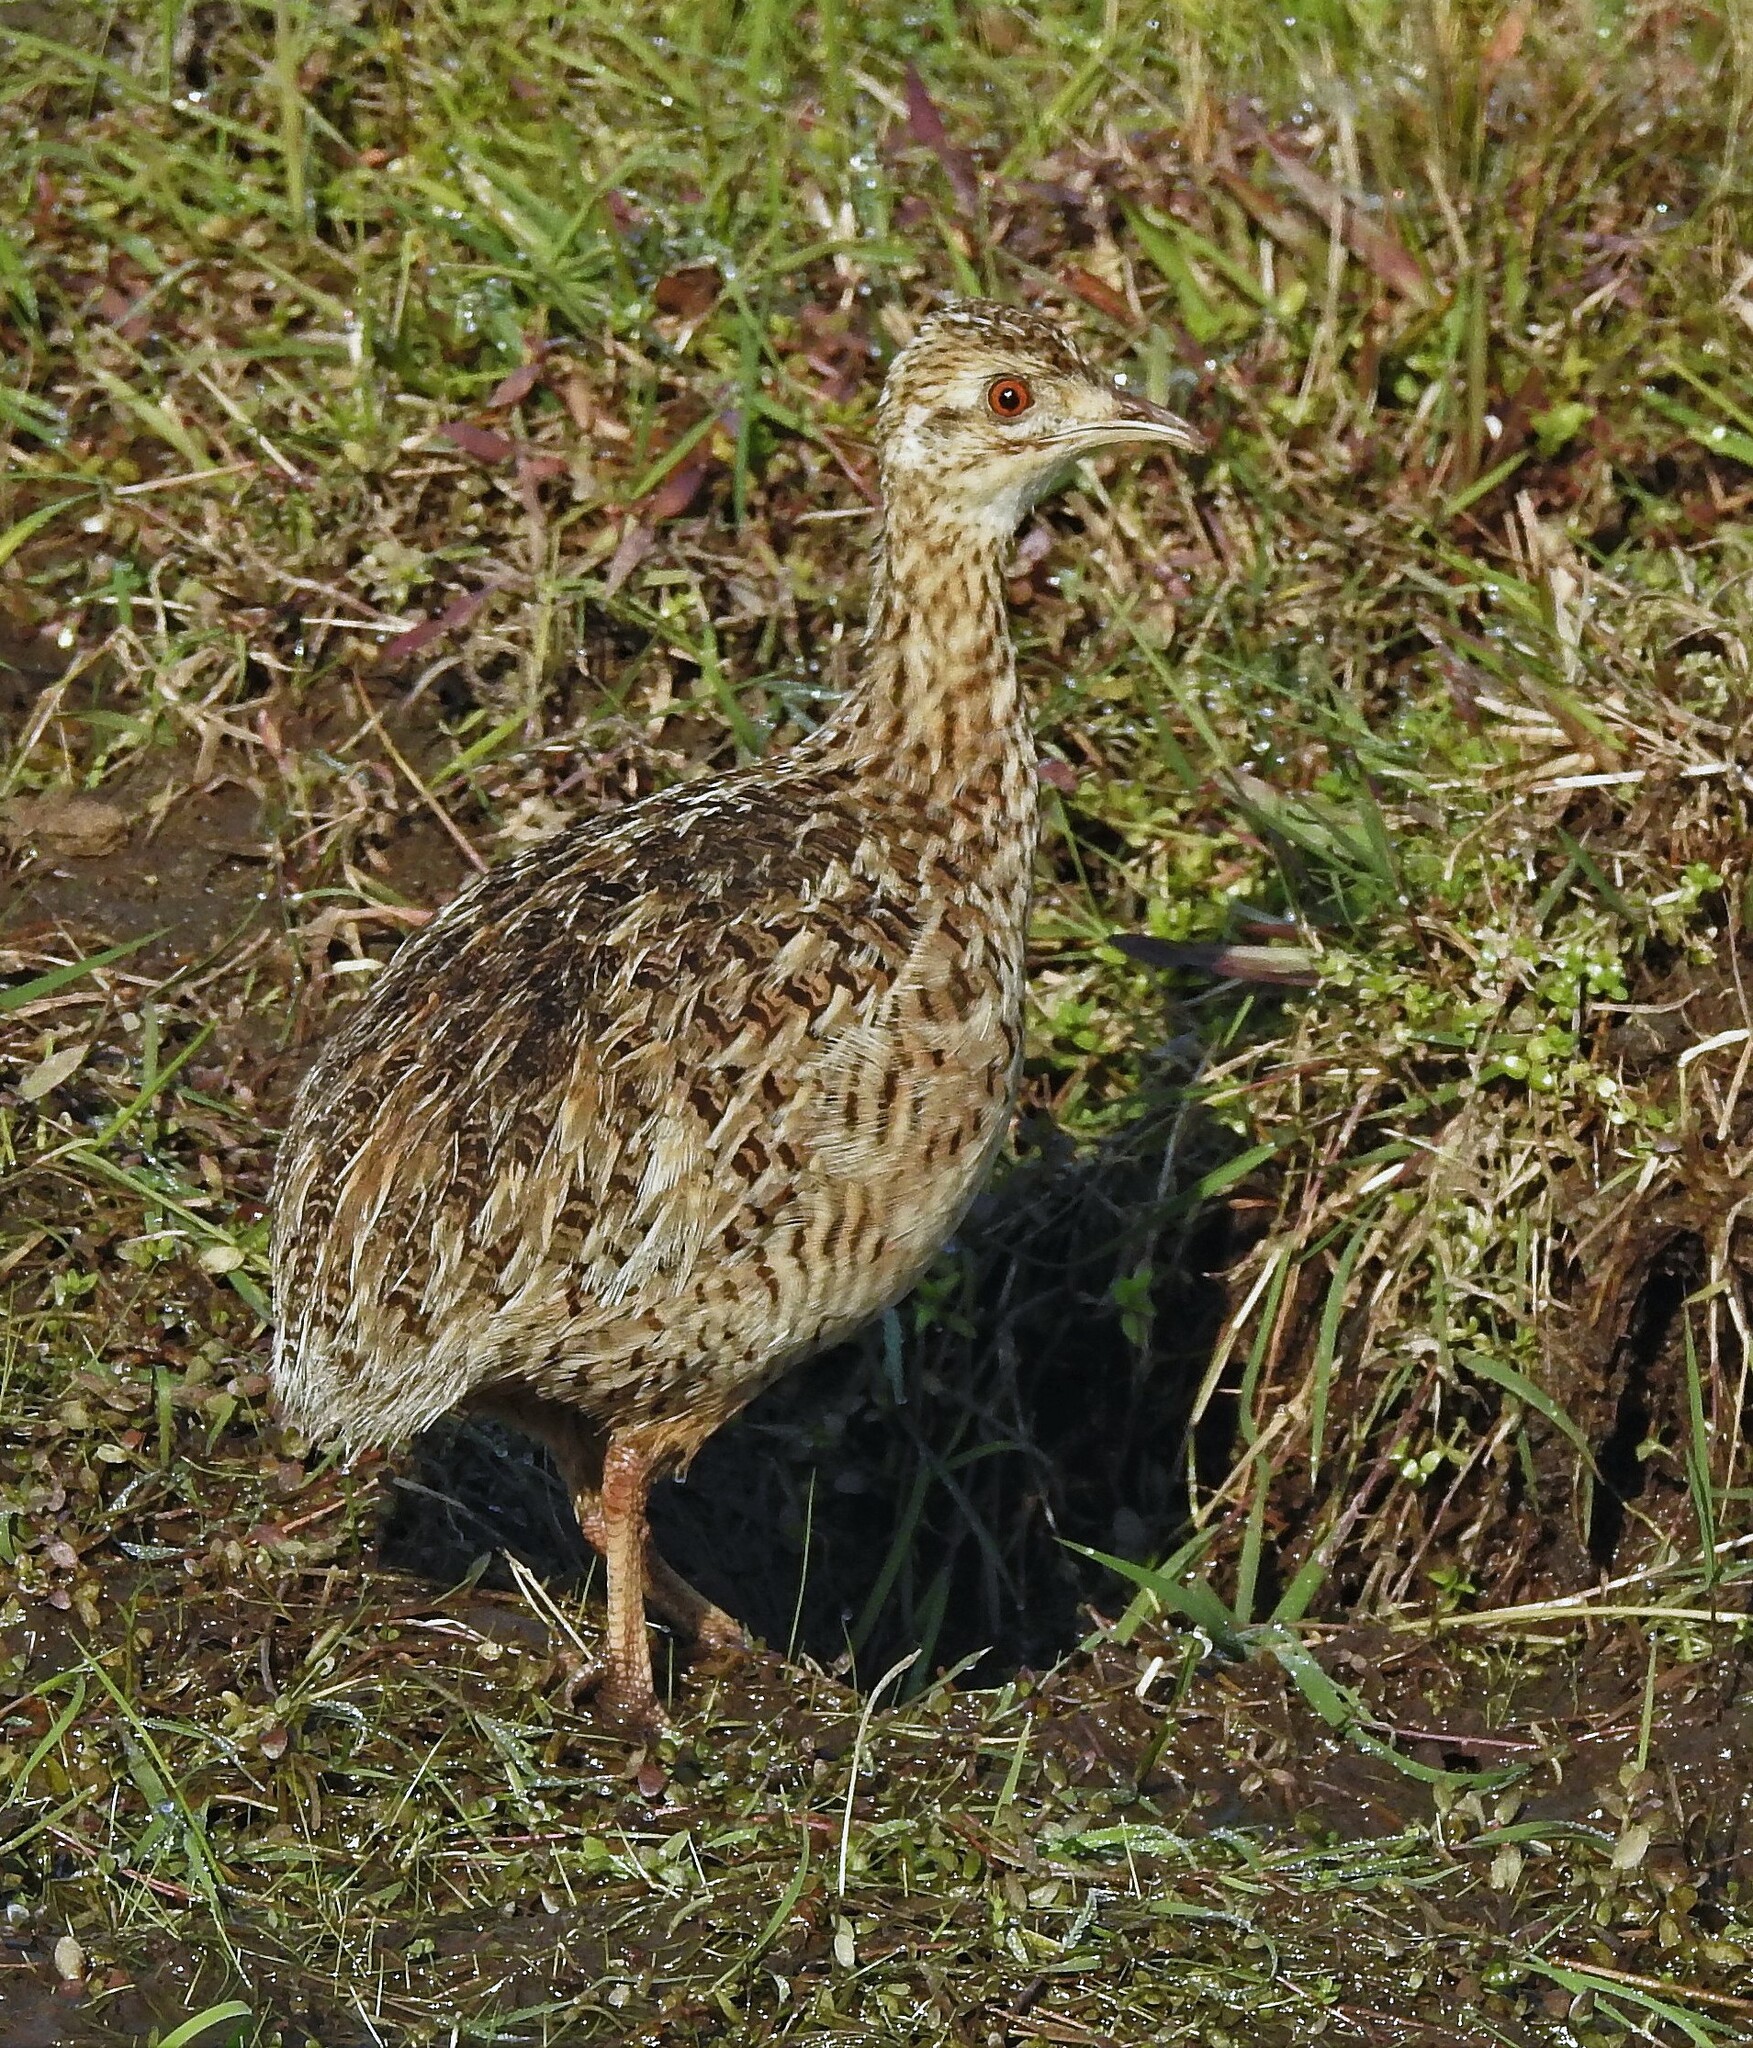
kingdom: Animalia
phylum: Chordata
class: Aves
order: Tinamiformes
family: Tinamidae
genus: Nothura
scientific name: Nothura maculosa
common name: Spotted nothura
